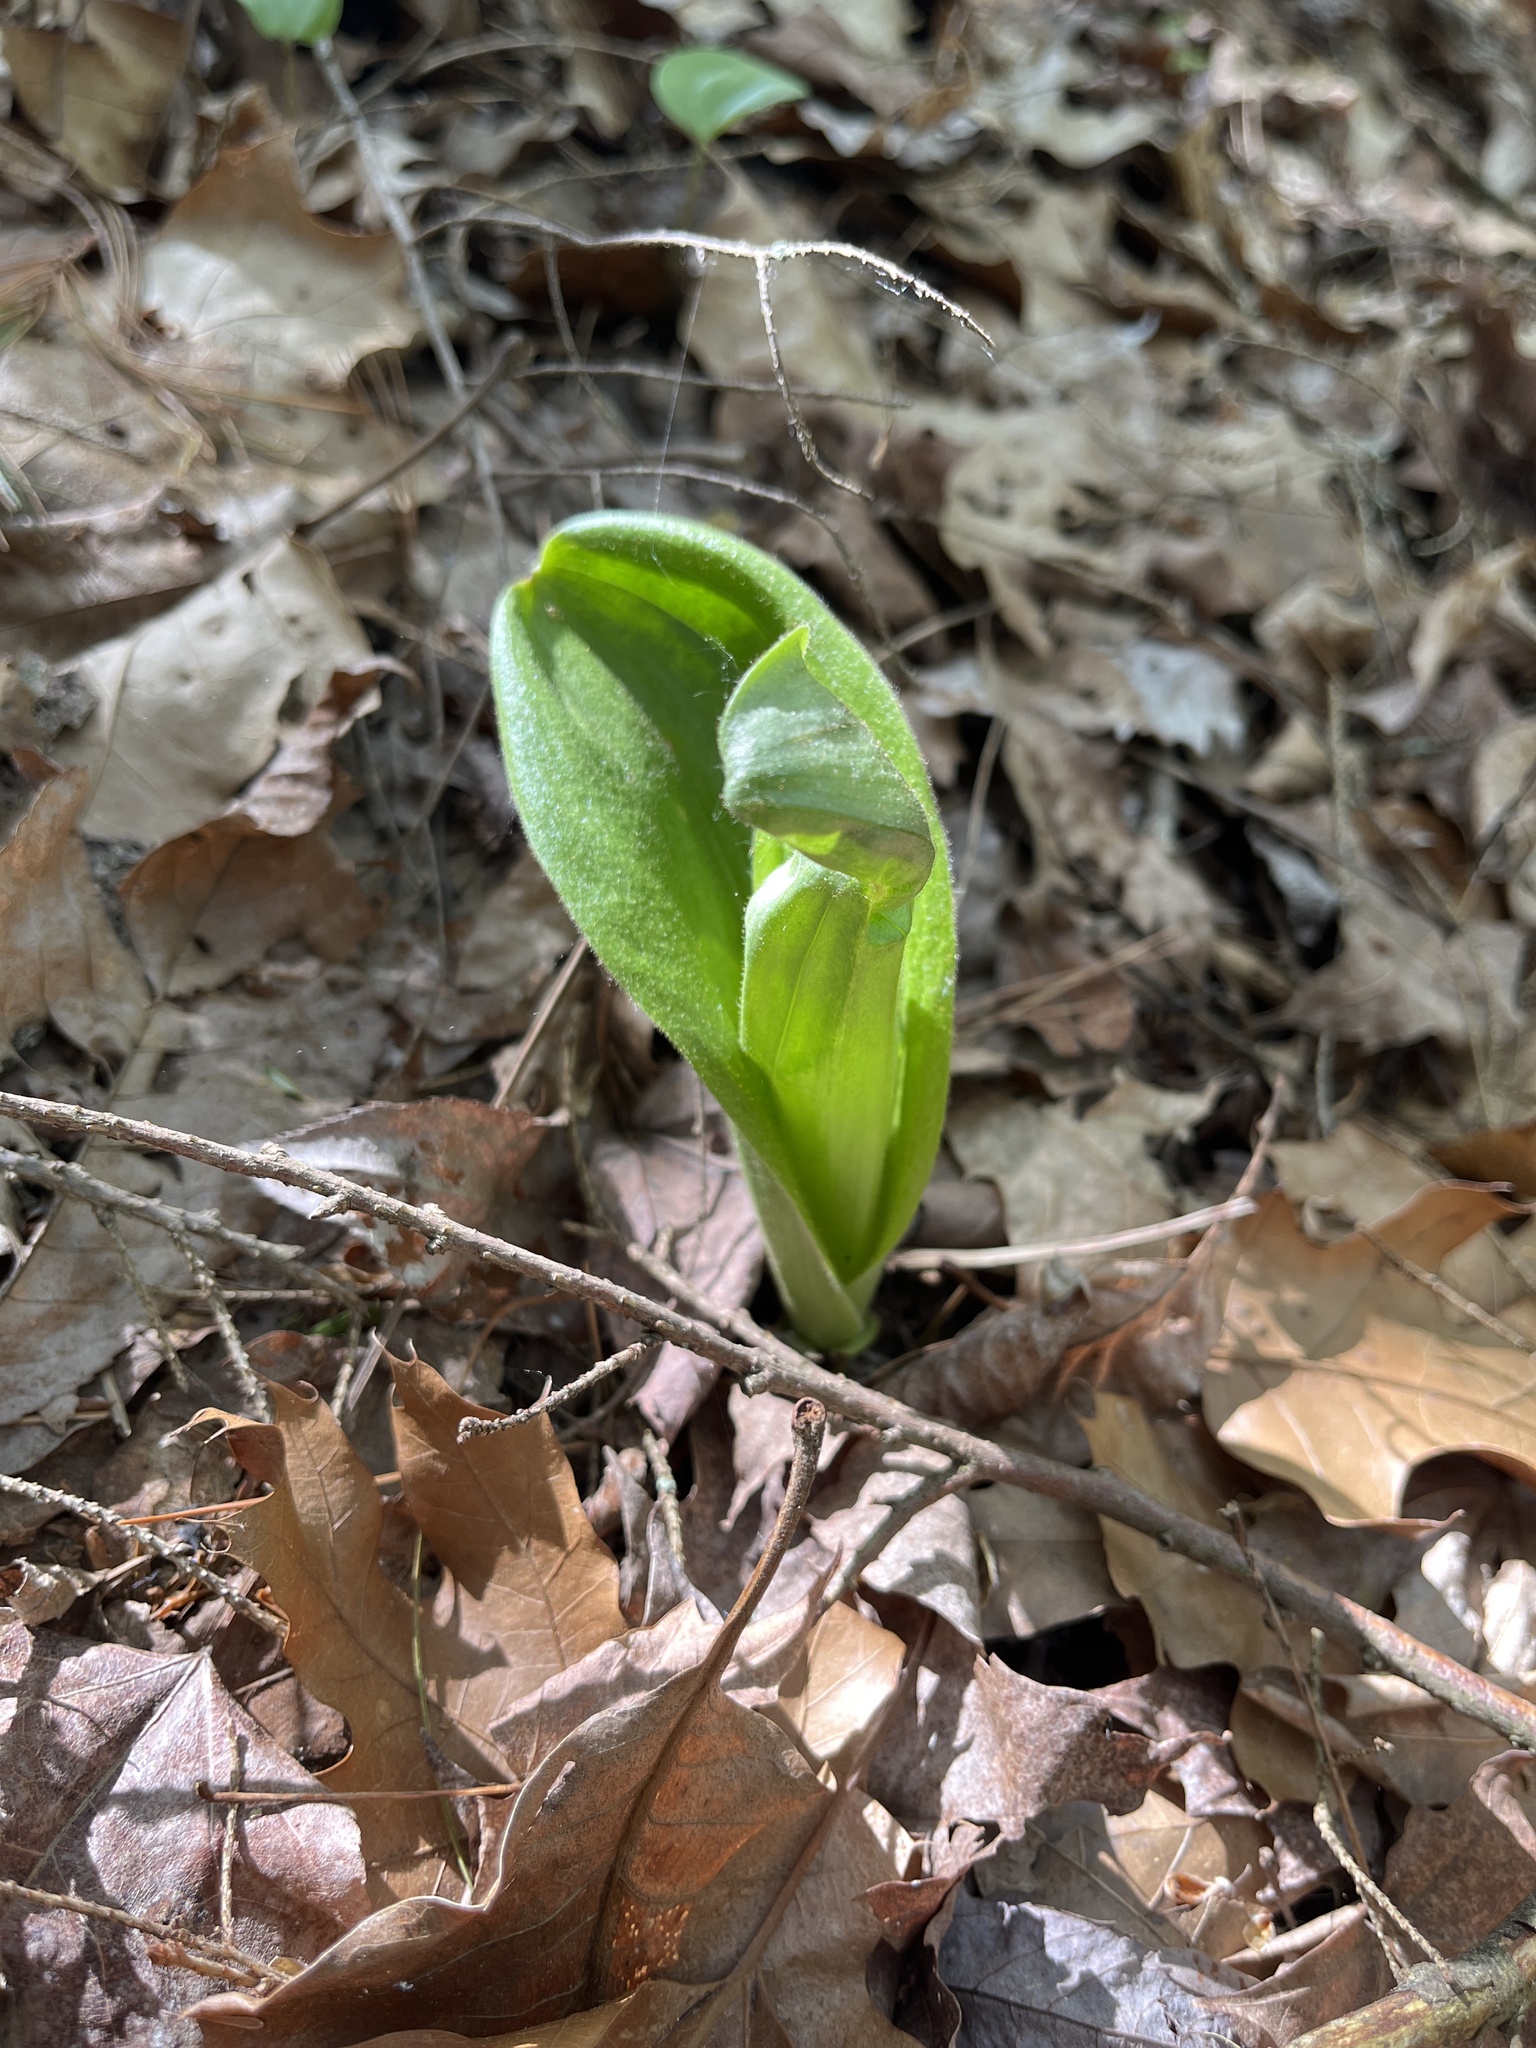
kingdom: Plantae
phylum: Tracheophyta
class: Liliopsida
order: Asparagales
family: Orchidaceae
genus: Cypripedium
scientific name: Cypripedium acaule
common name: Pink lady's-slipper
